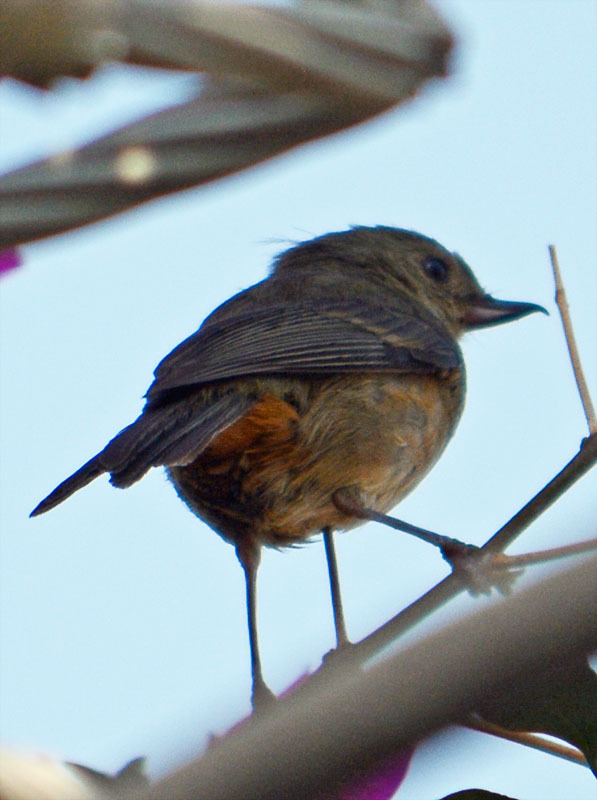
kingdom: Animalia
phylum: Chordata
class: Aves
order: Passeriformes
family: Thraupidae
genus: Diglossa
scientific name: Diglossa baritula
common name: Cinnamon-bellied flowerpiercer
